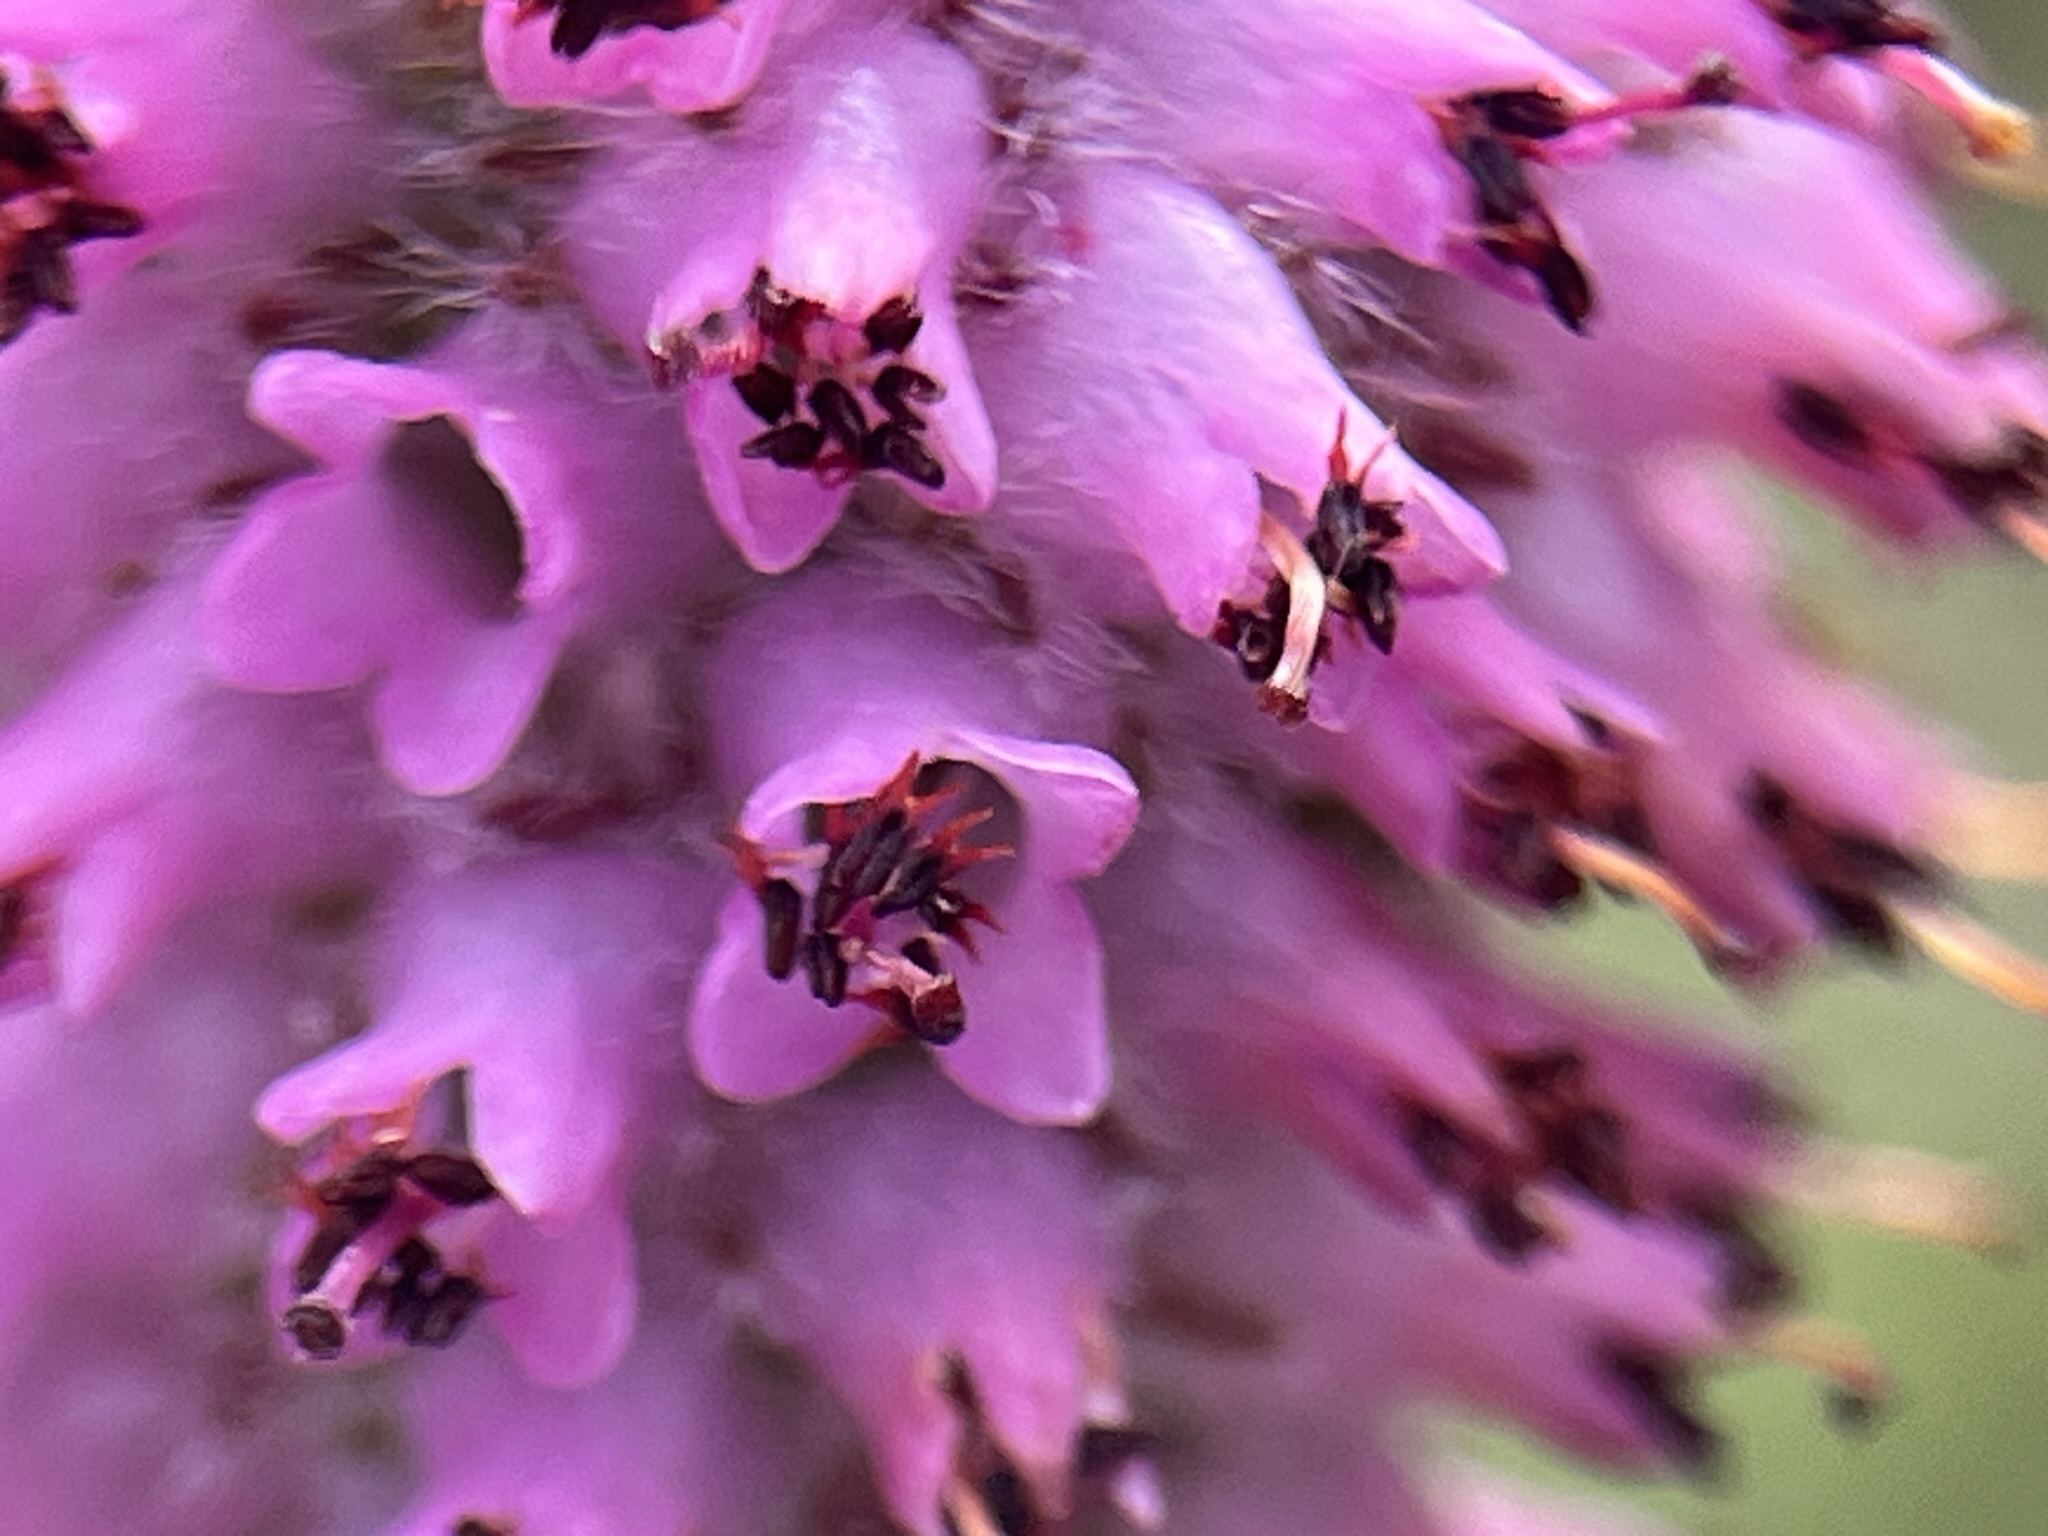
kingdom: Plantae
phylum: Tracheophyta
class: Magnoliopsida
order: Ericales
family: Ericaceae
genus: Erica
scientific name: Erica empetrina
